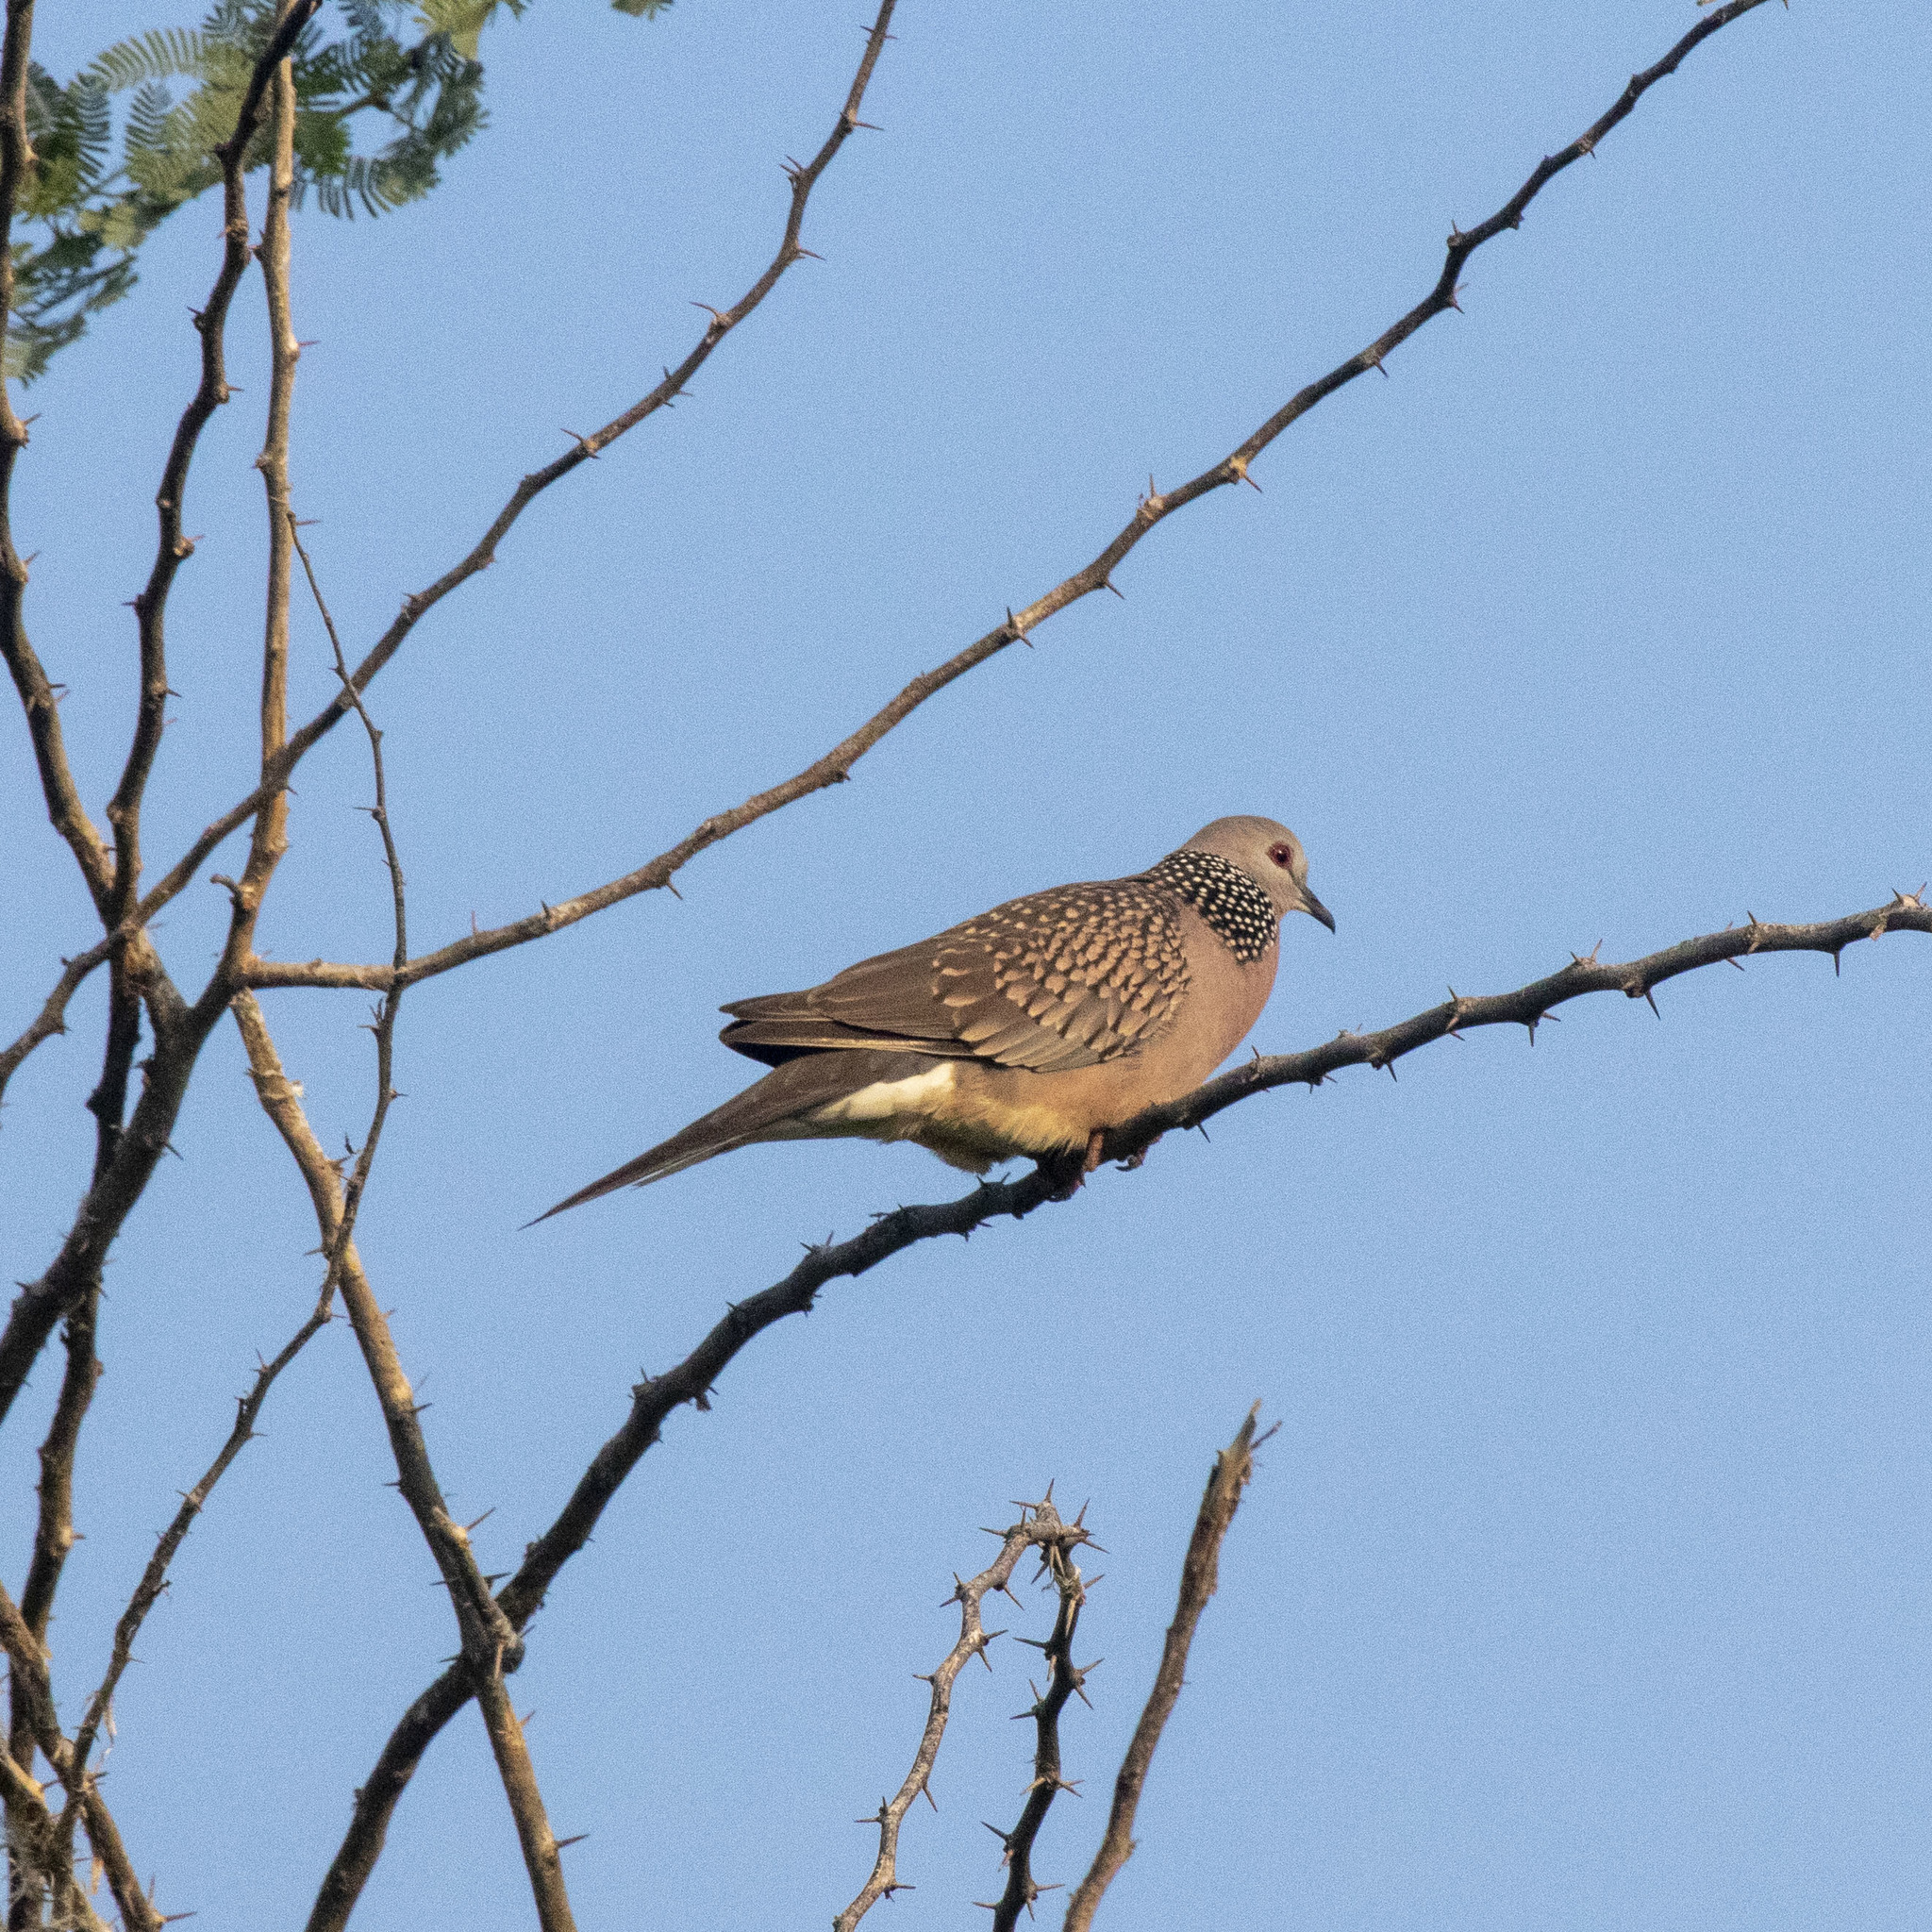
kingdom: Animalia
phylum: Chordata
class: Aves
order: Columbiformes
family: Columbidae
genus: Spilopelia
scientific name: Spilopelia chinensis
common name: Spotted dove
